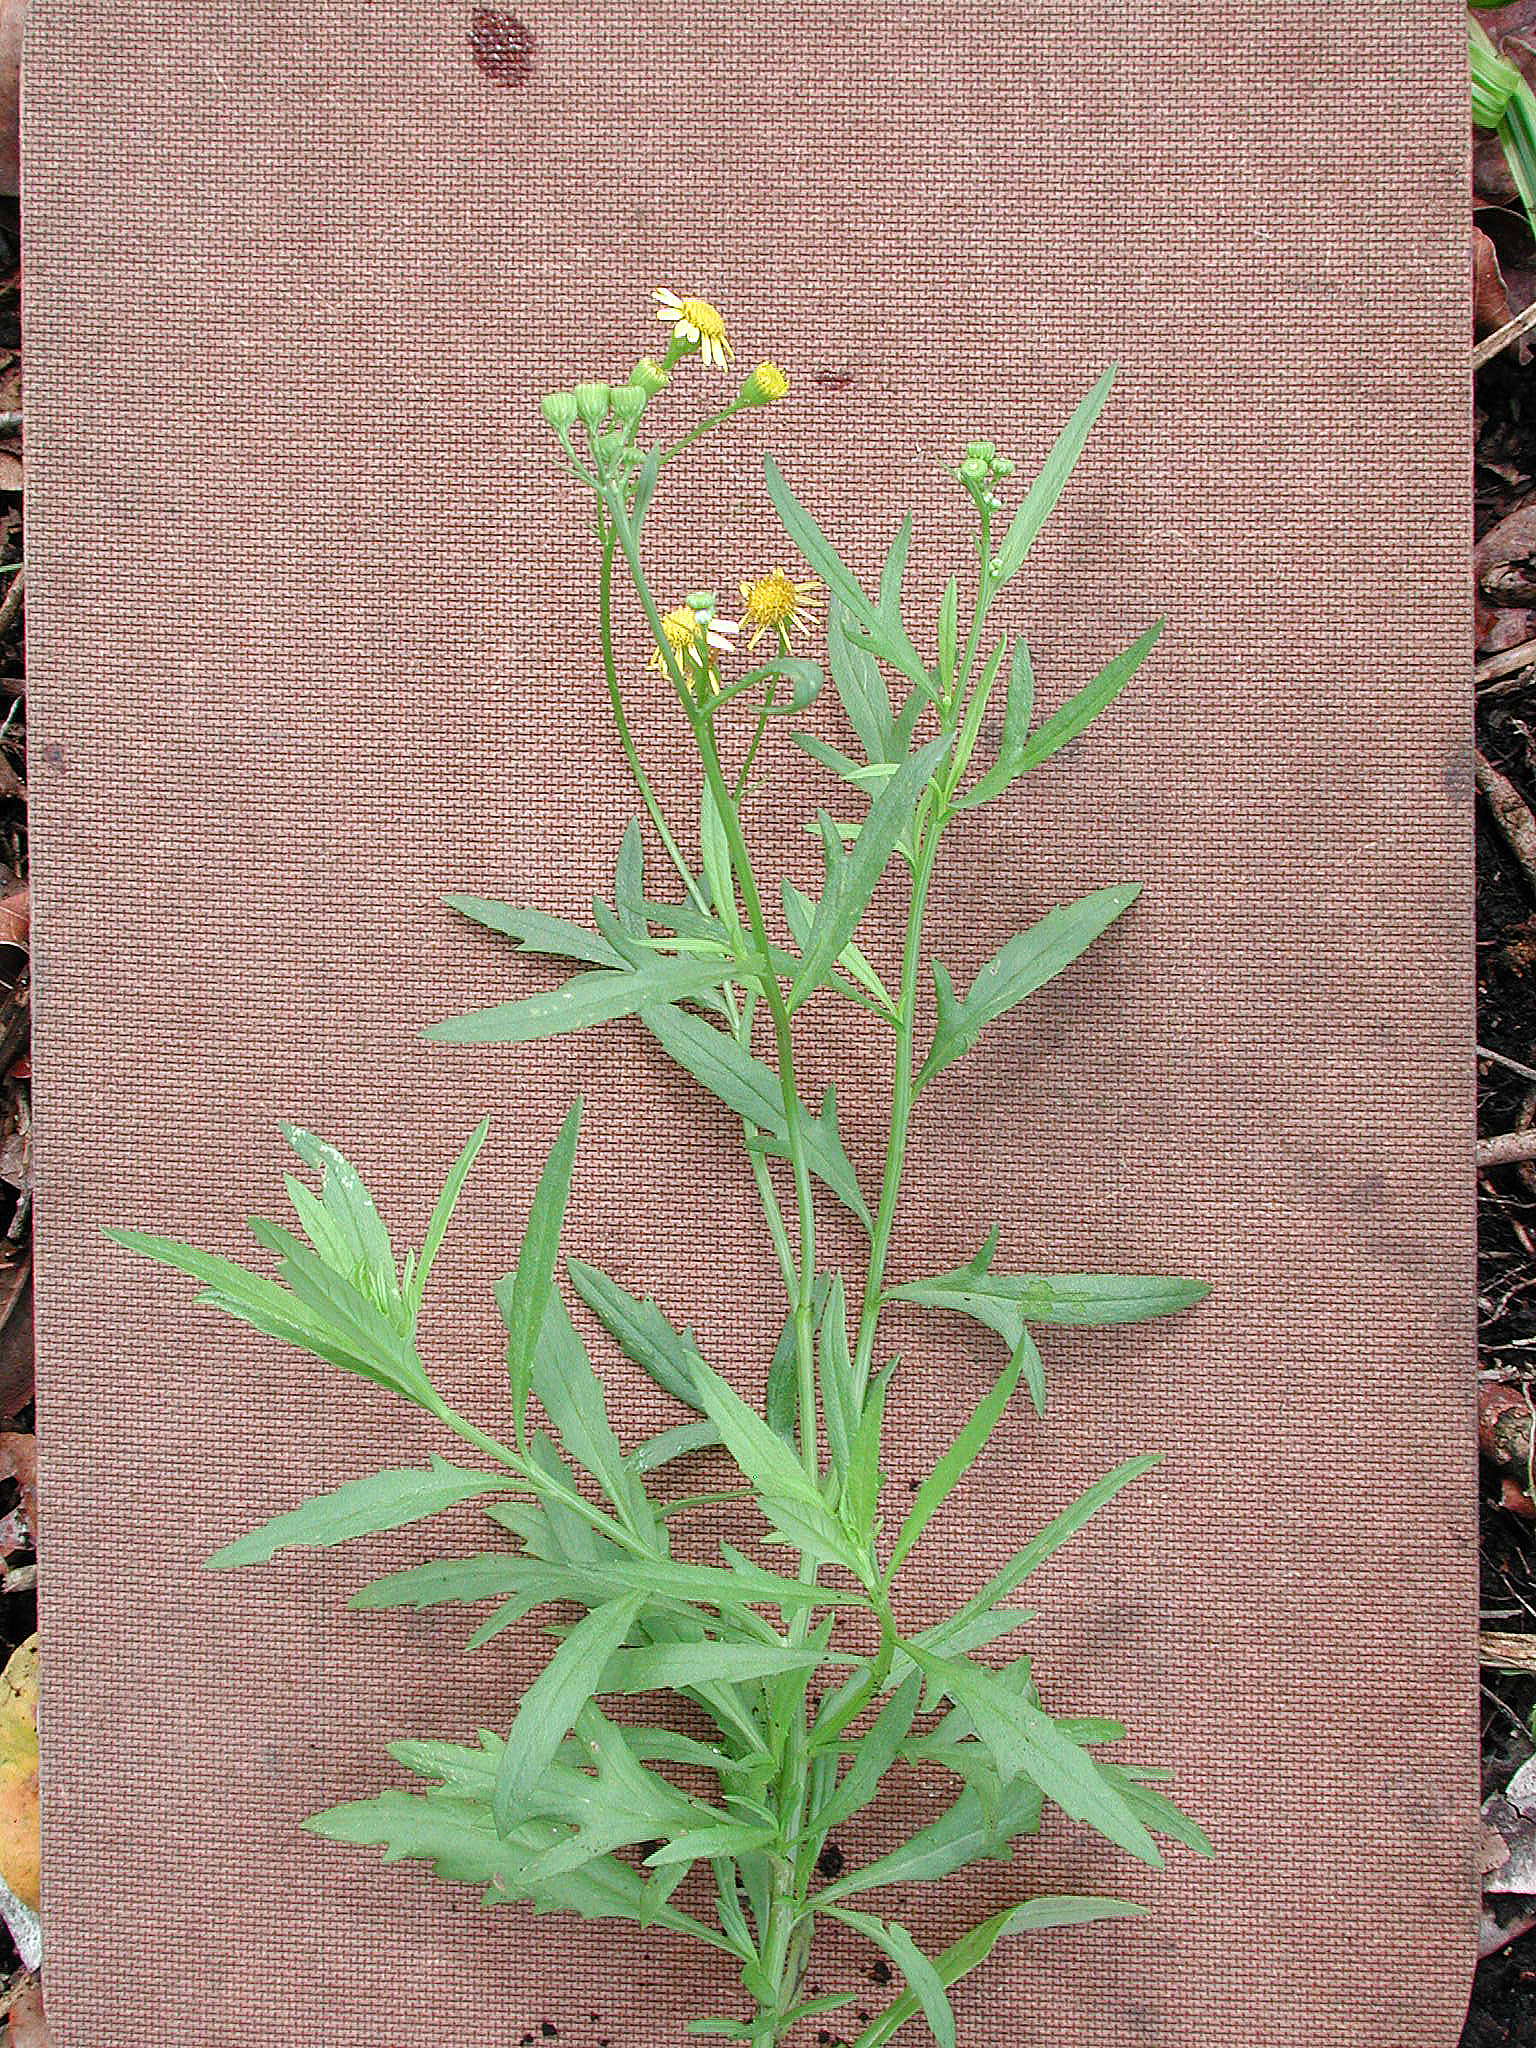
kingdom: Plantae
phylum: Tracheophyta
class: Magnoliopsida
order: Asterales
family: Asteraceae
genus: Senecio
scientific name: Senecio madagascariensis
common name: Madagascar ragwort
